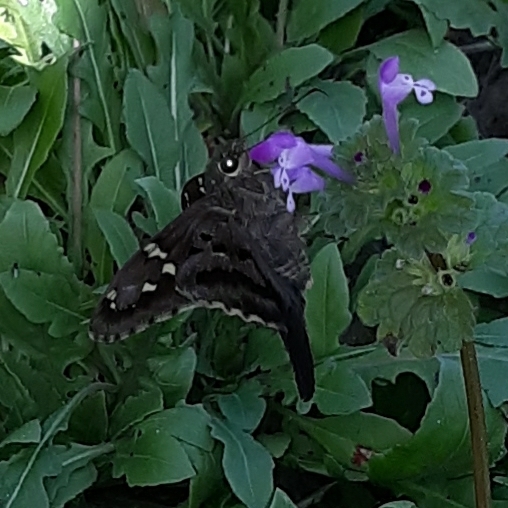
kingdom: Animalia
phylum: Arthropoda
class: Insecta
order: Lepidoptera
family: Hesperiidae
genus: Urbanus
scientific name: Urbanus proteus
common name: Long-tailed skipper
